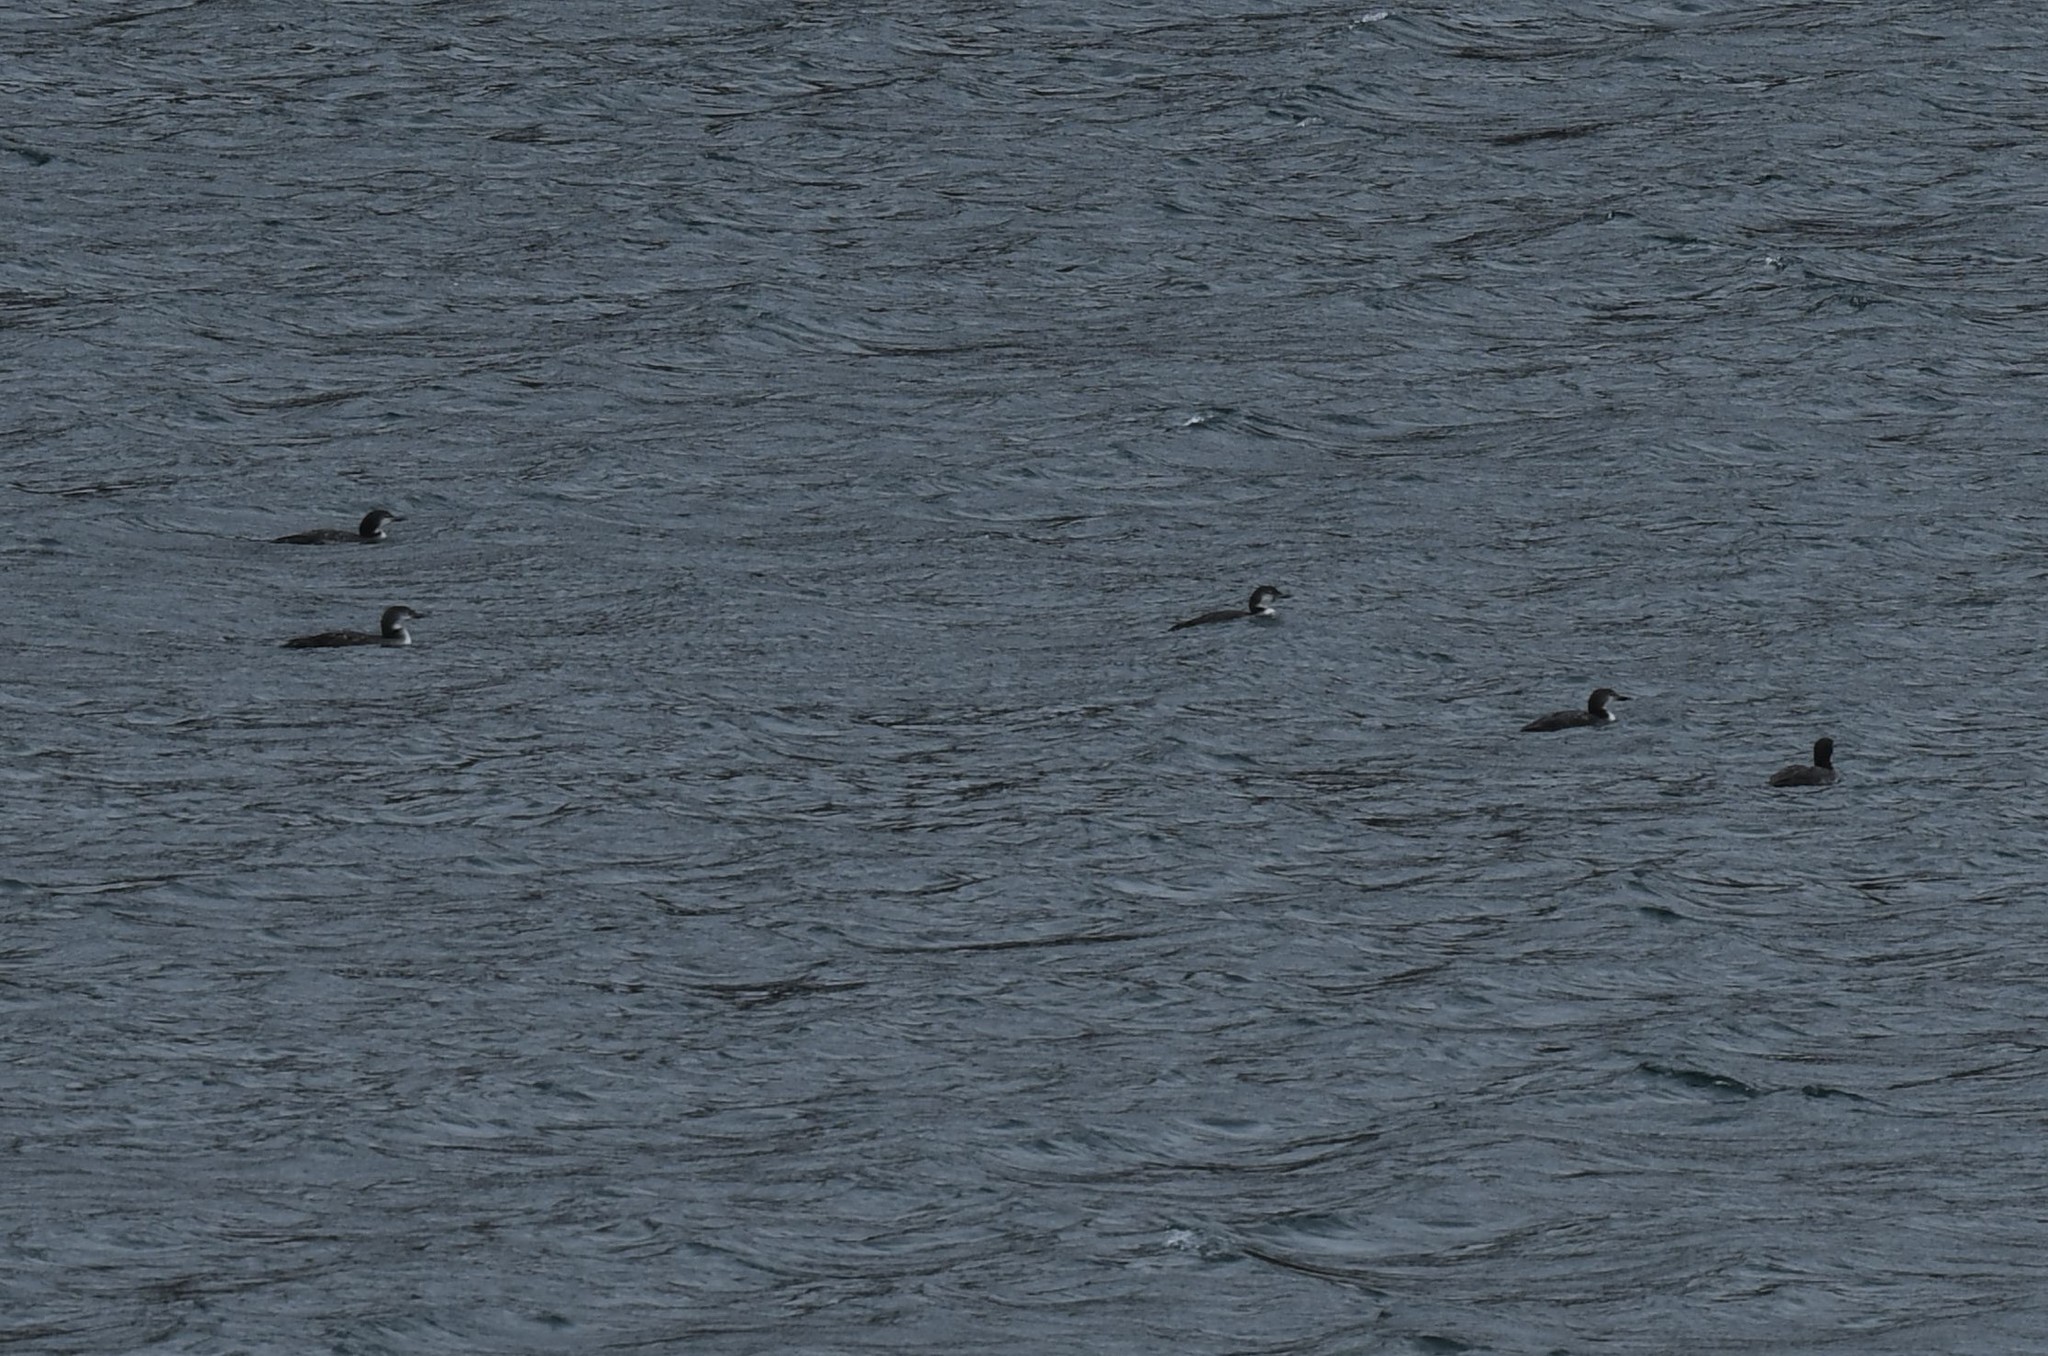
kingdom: Animalia
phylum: Chordata
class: Aves
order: Gaviiformes
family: Gaviidae
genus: Gavia
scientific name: Gavia immer
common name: Common loon
